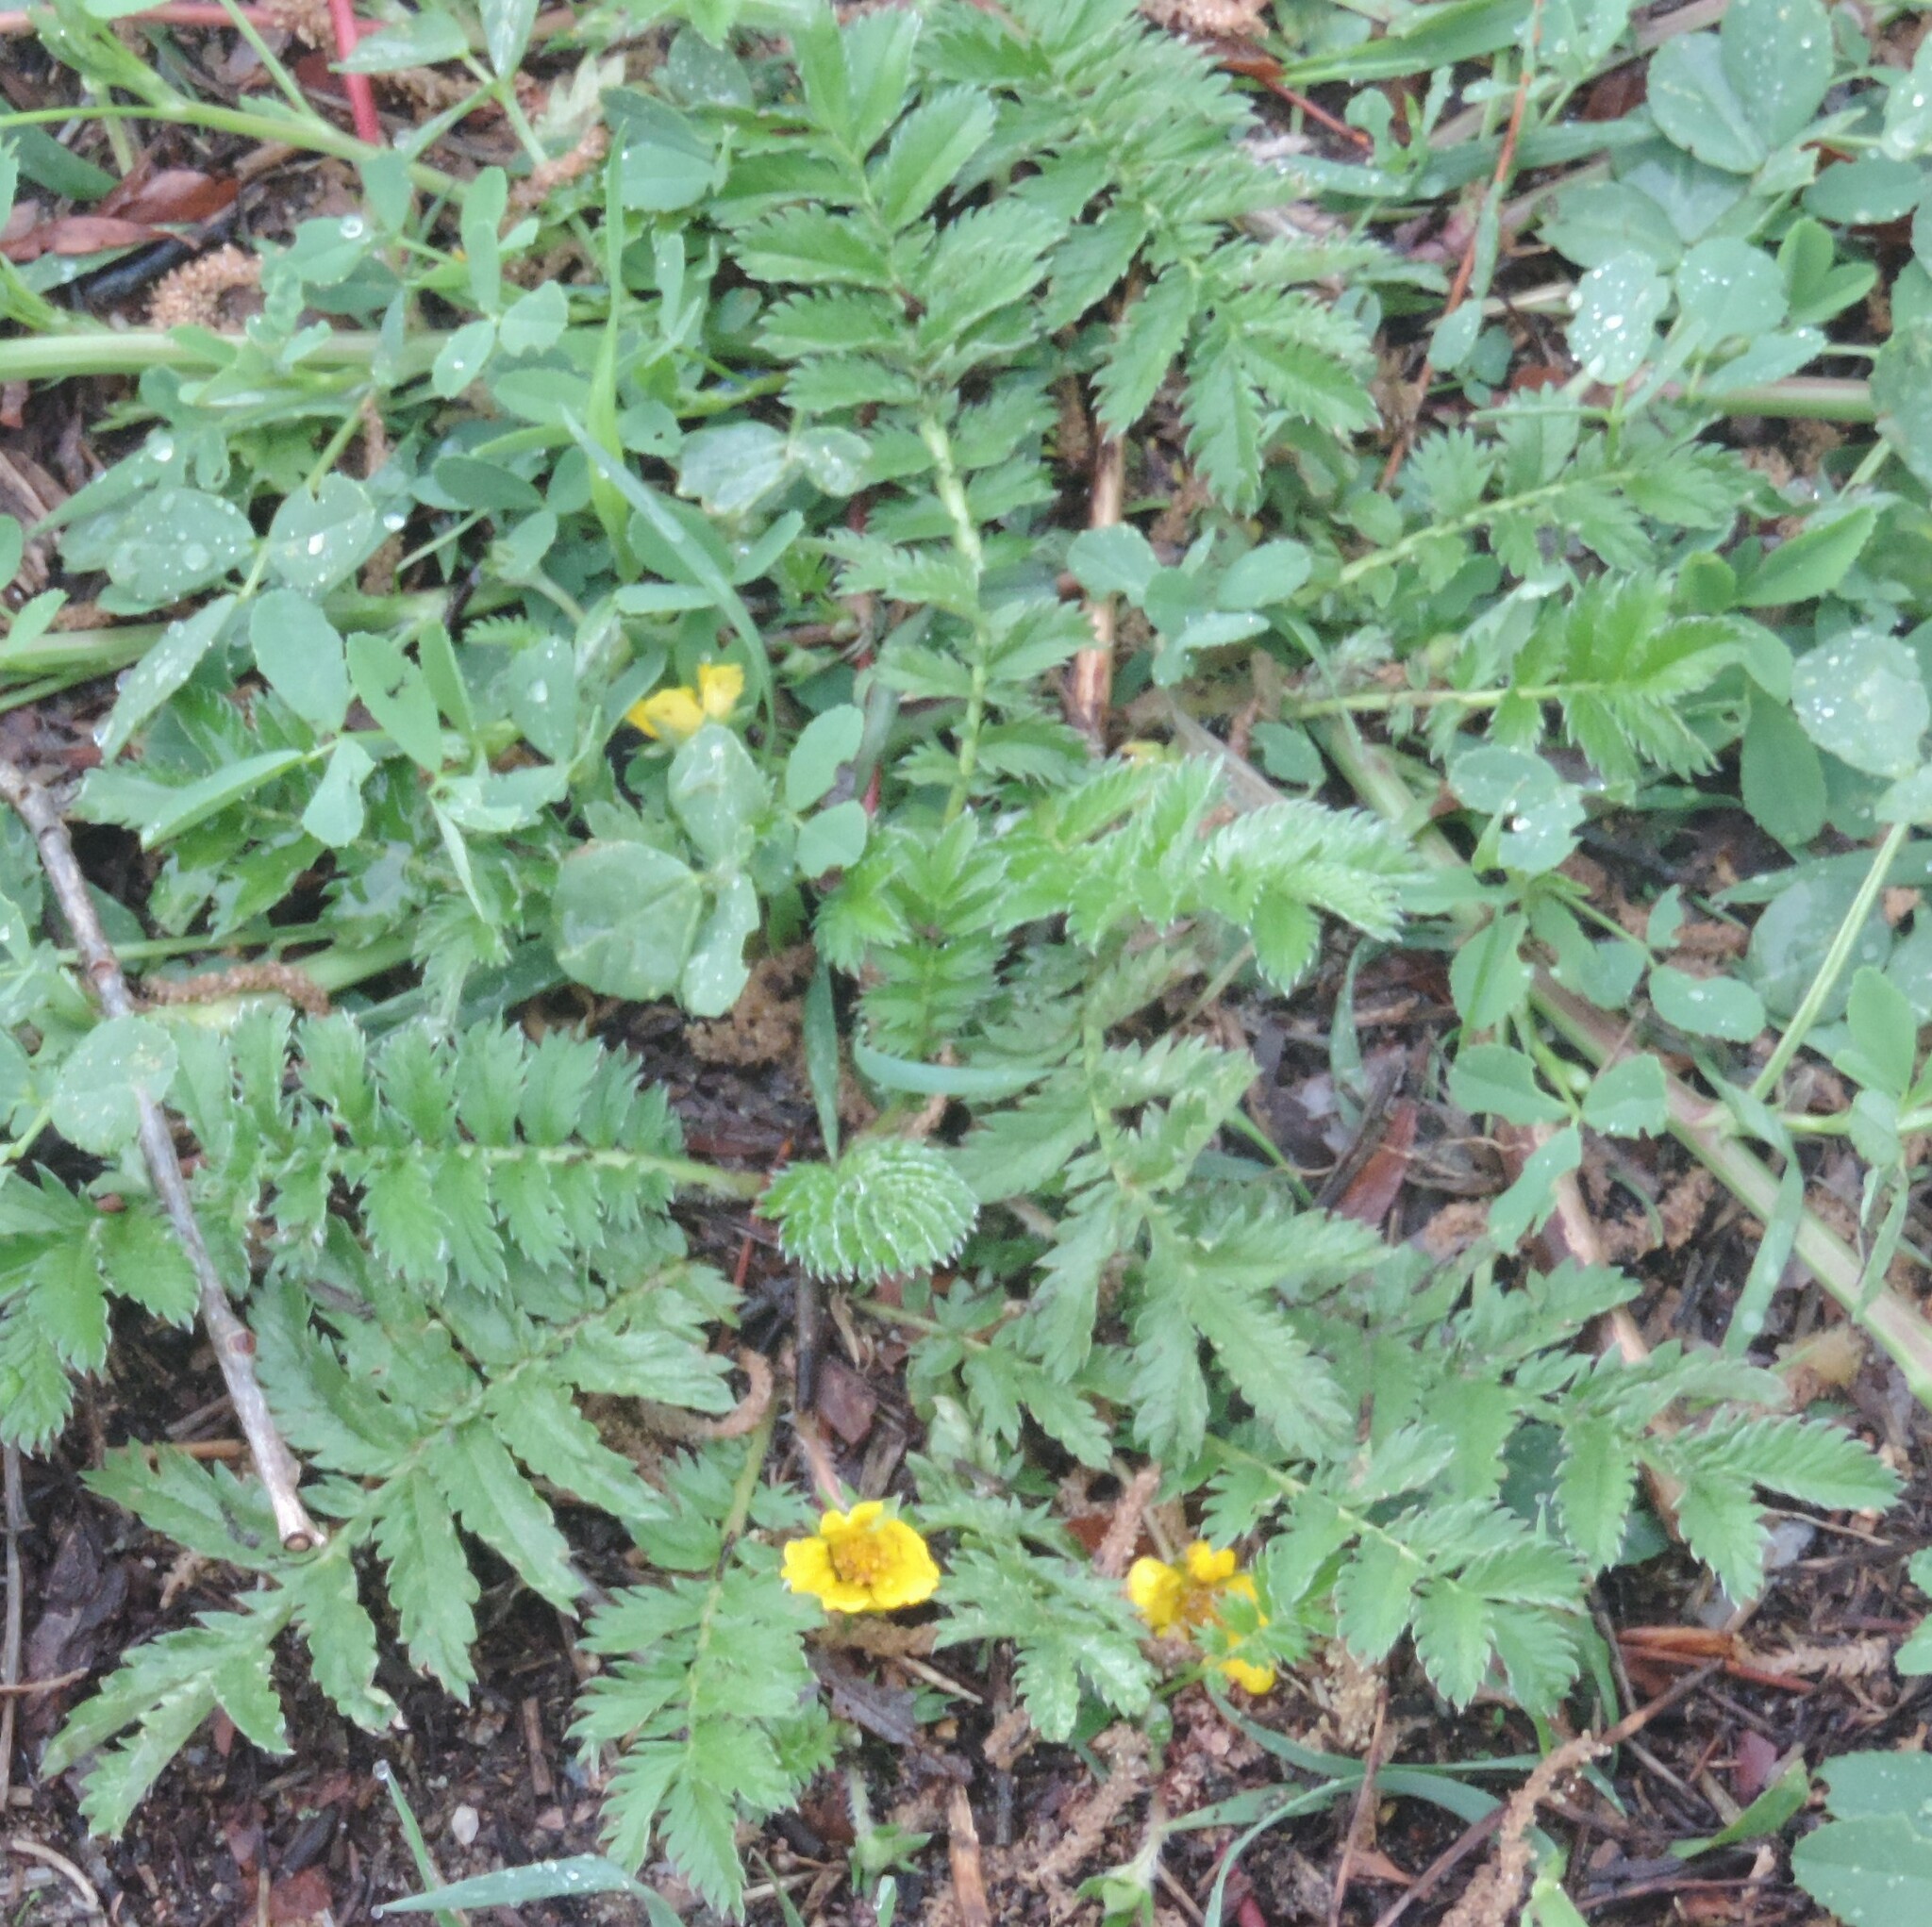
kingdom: Plantae
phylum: Tracheophyta
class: Magnoliopsida
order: Rosales
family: Rosaceae
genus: Argentina
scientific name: Argentina anserina
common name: Common silverweed
